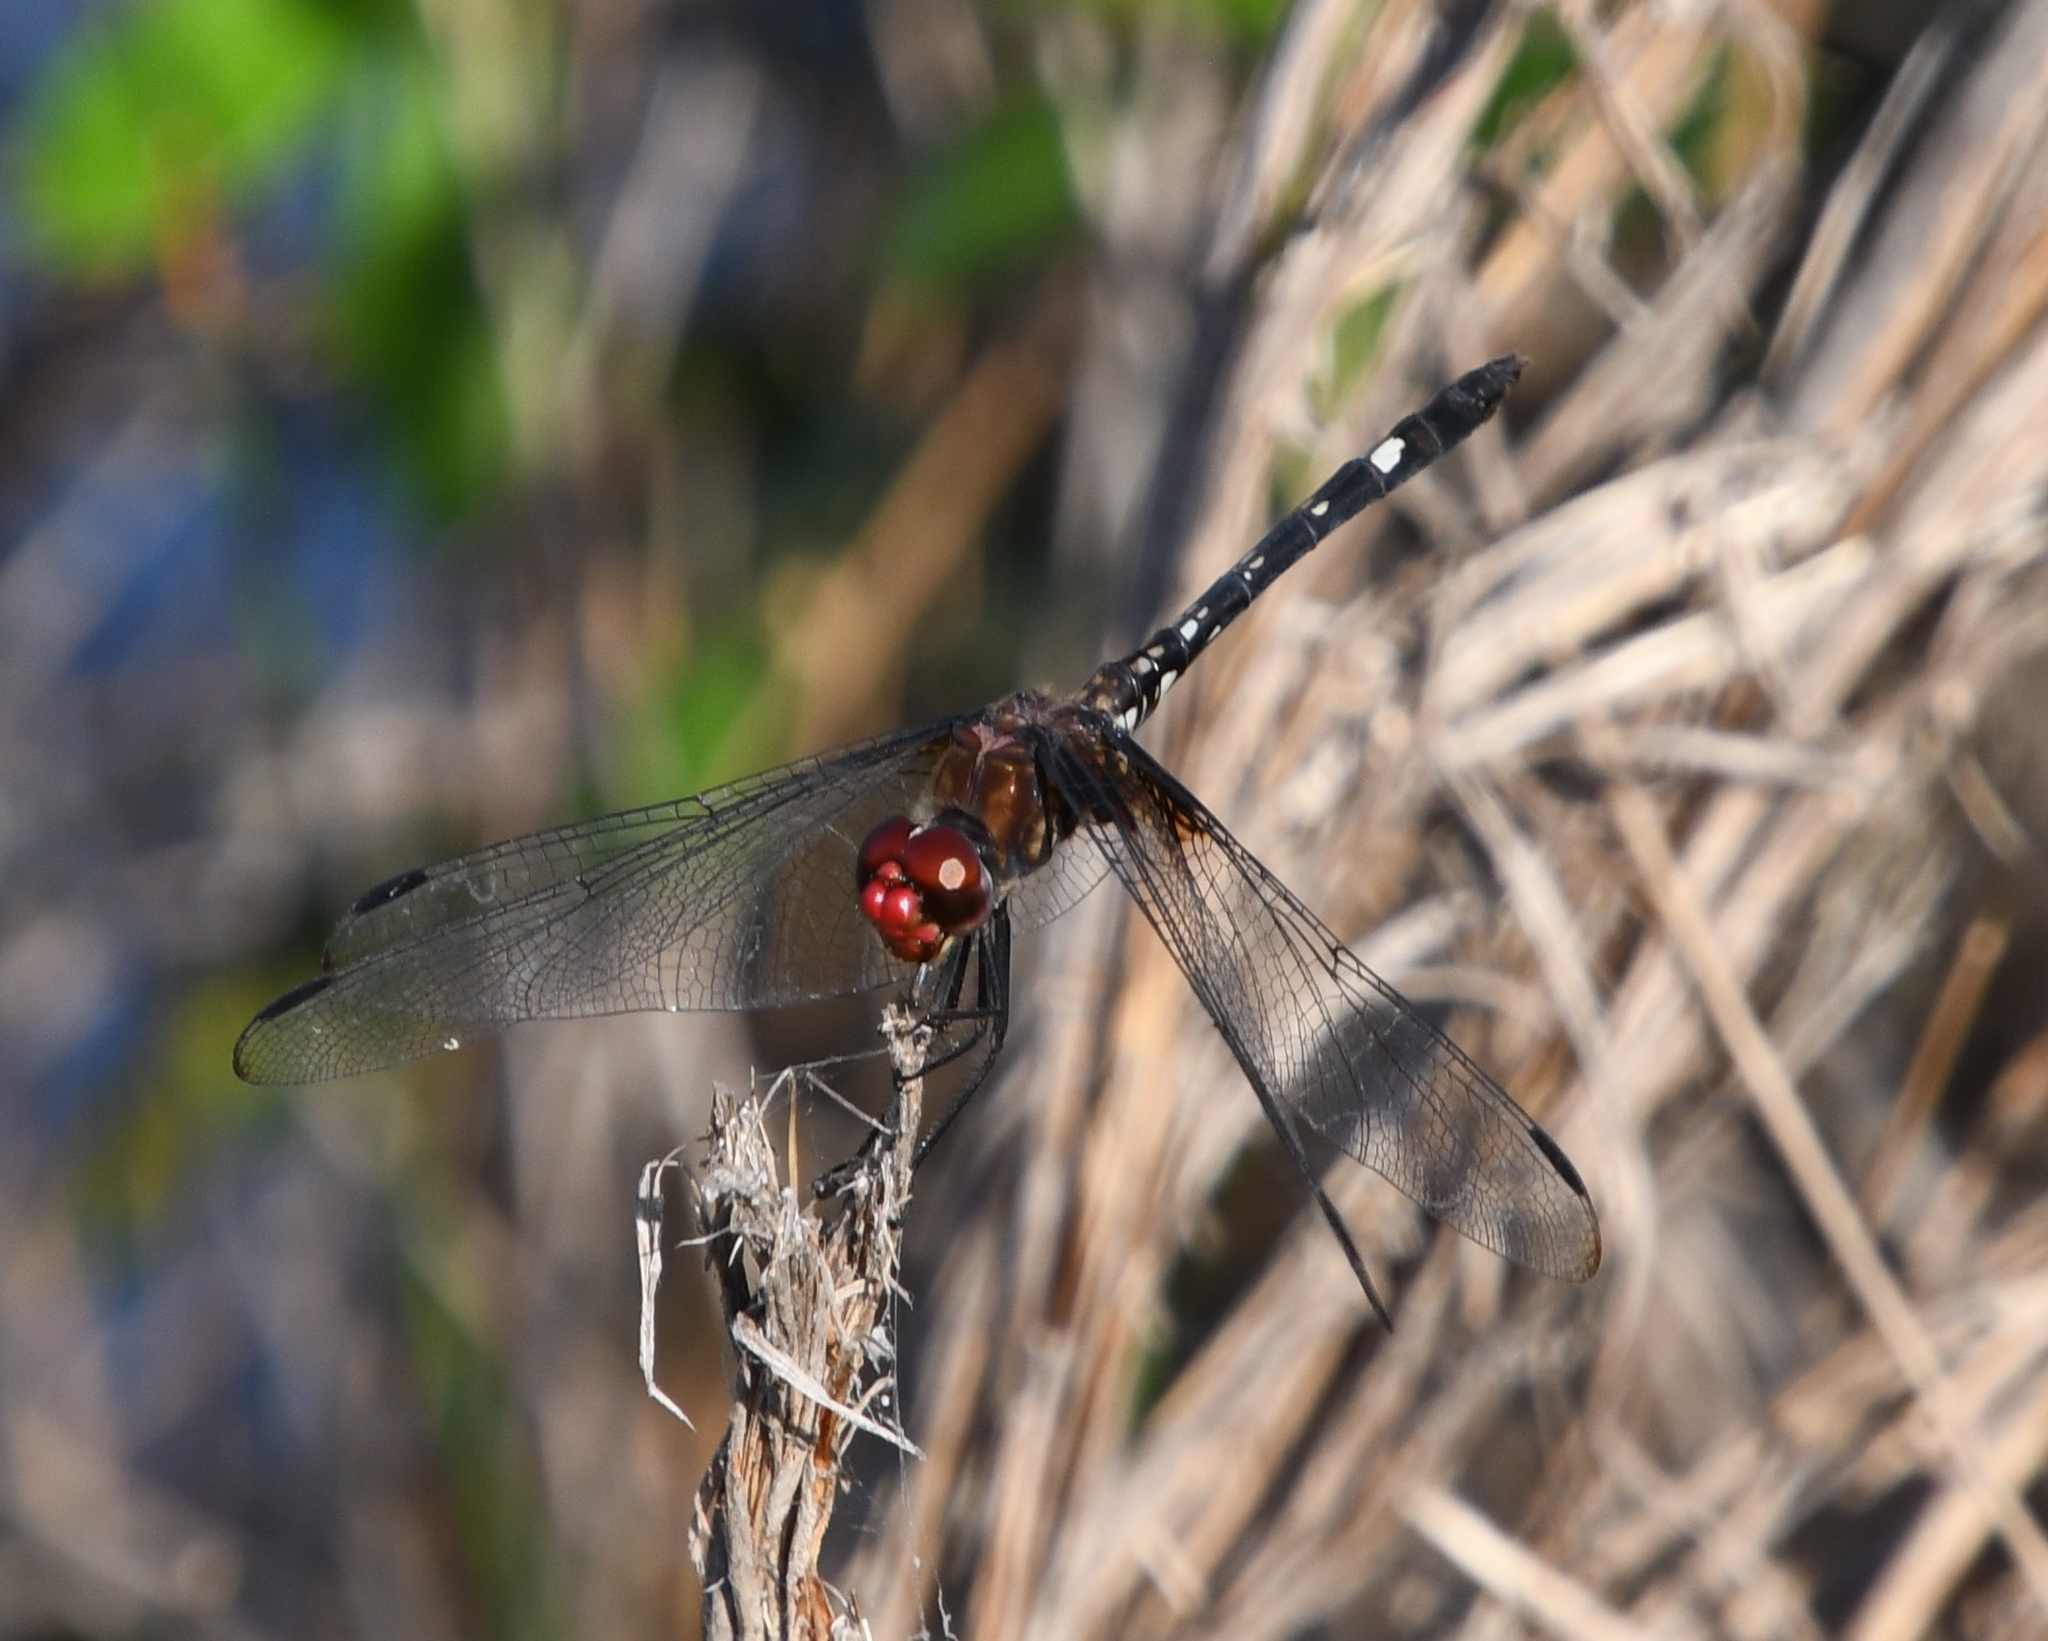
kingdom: Animalia
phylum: Arthropoda
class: Insecta
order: Odonata
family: Libellulidae
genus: Dythemis
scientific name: Dythemis fugax
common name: Checkered setwing
